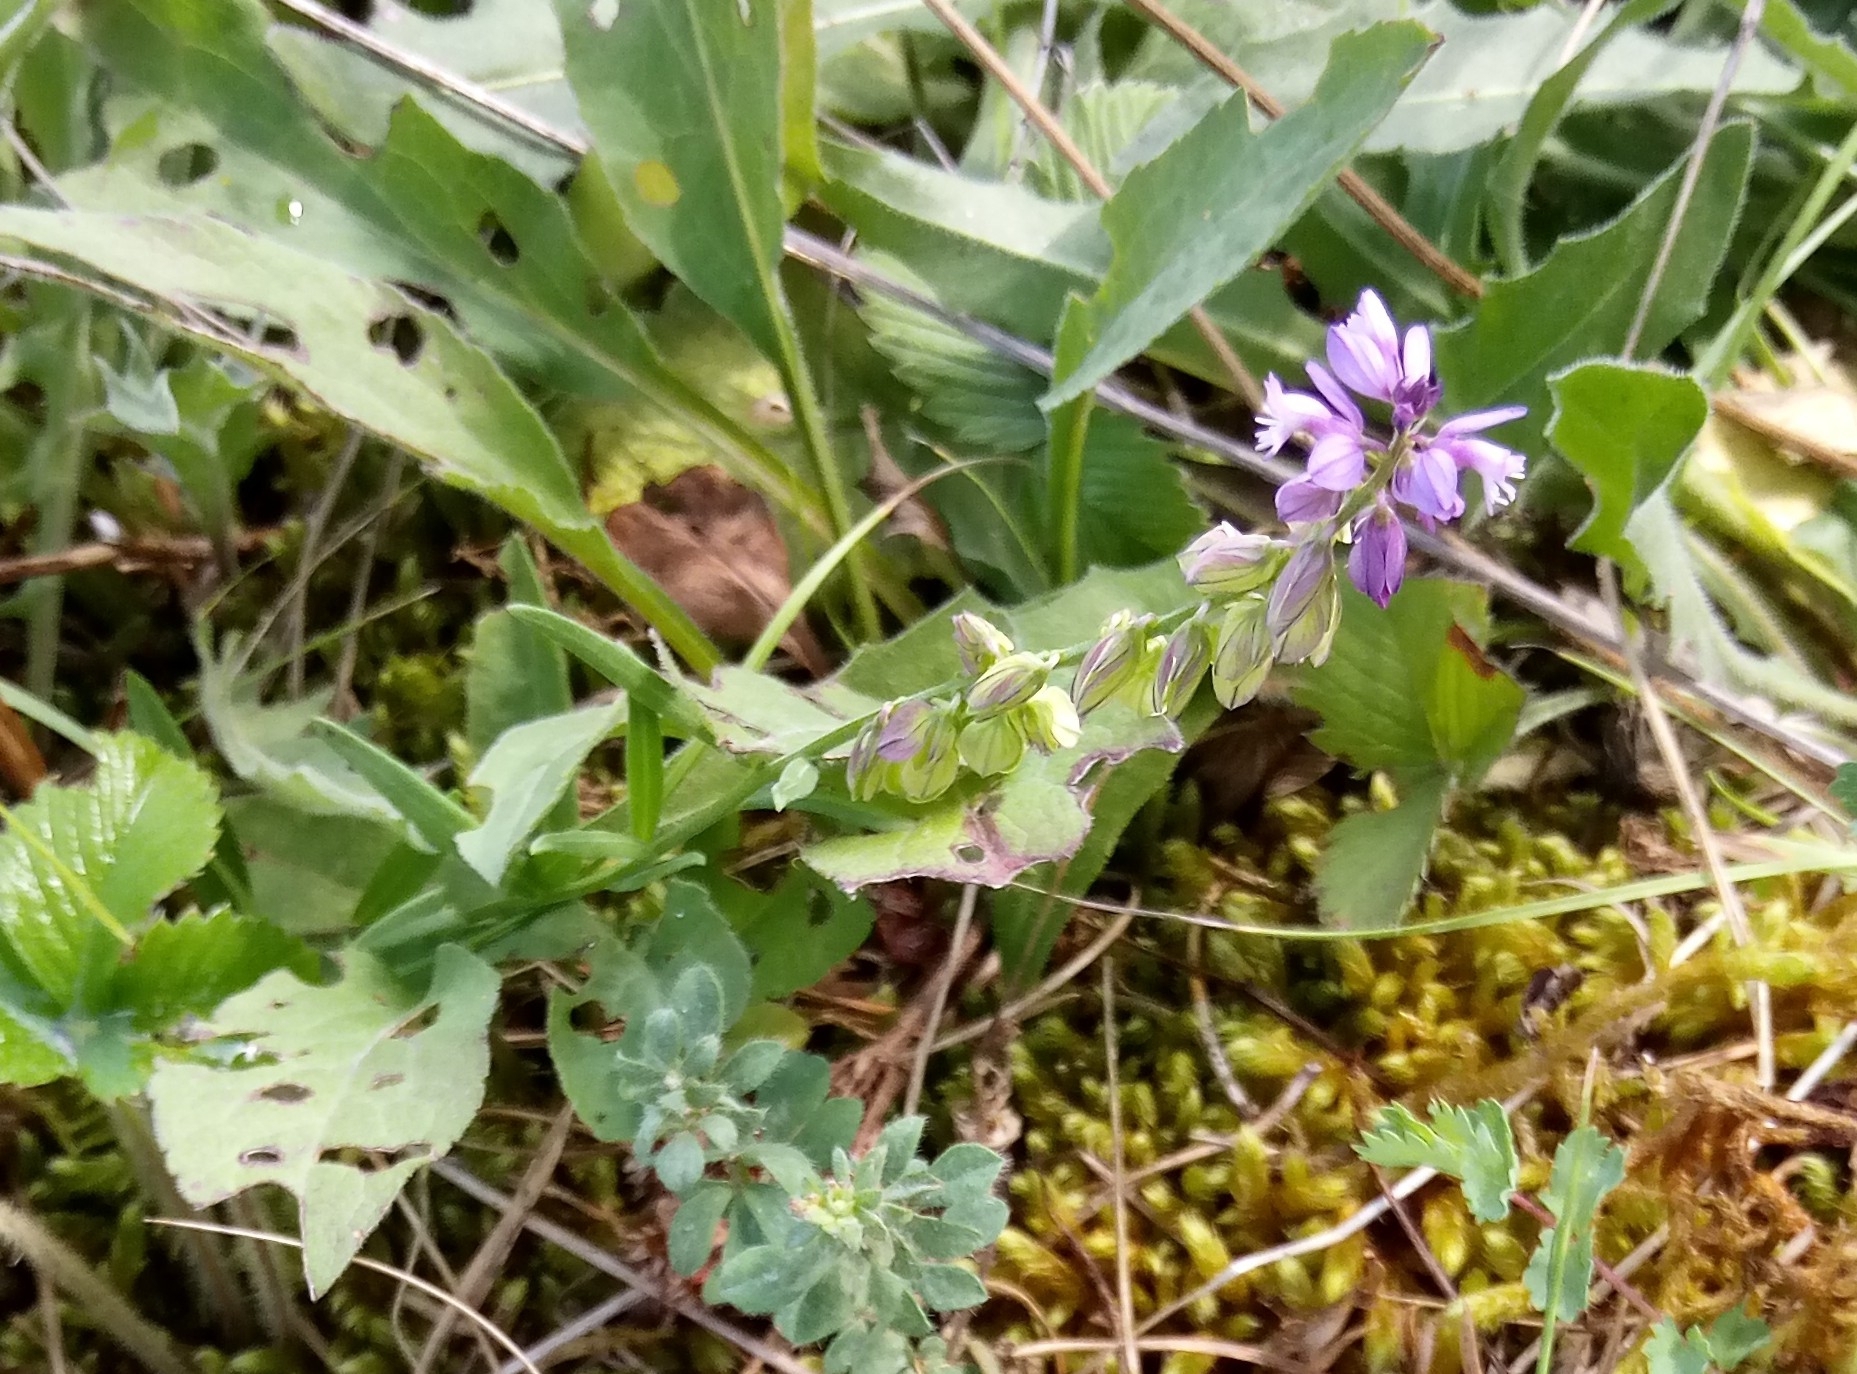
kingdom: Plantae
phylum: Tracheophyta
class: Magnoliopsida
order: Fabales
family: Polygalaceae
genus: Polygala
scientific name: Polygala comosa
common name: Tufted milkwort
